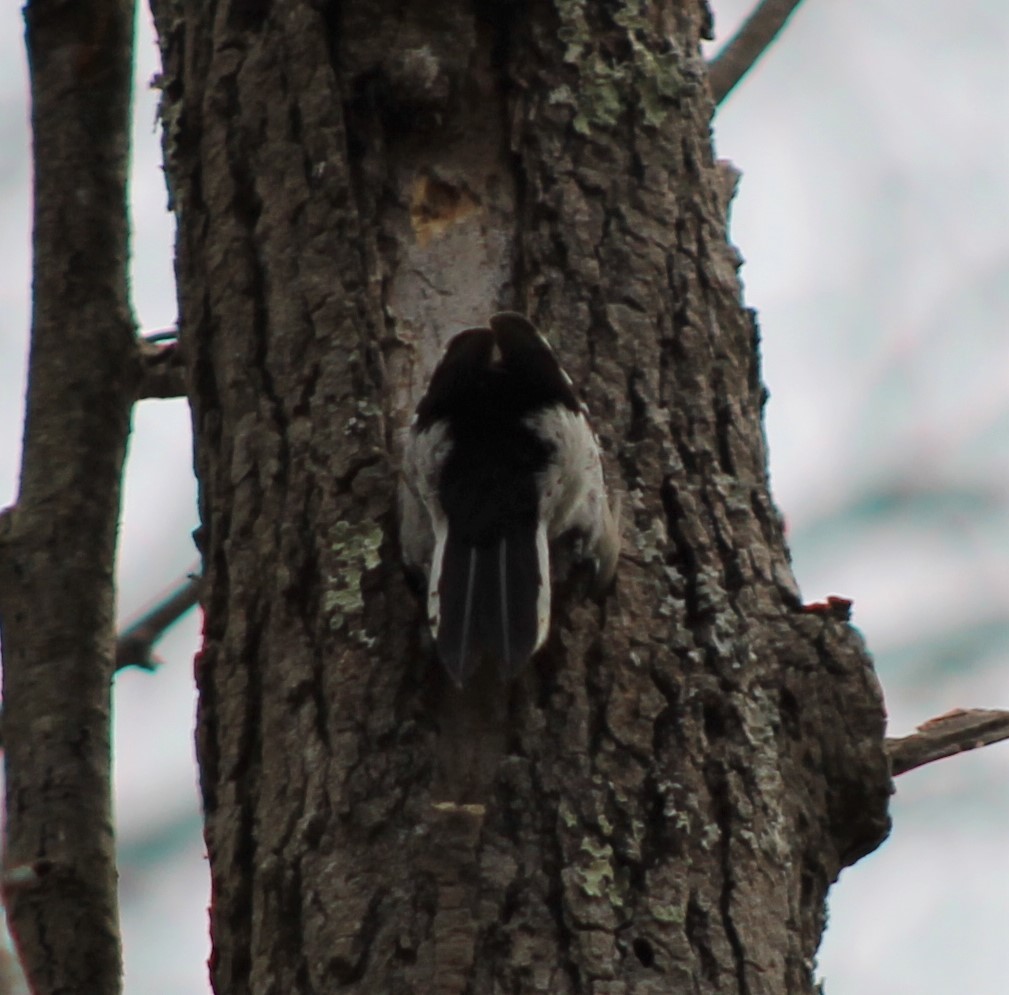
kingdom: Animalia
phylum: Chordata
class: Aves
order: Piciformes
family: Picidae
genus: Dryobates
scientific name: Dryobates pubescens
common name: Downy woodpecker
